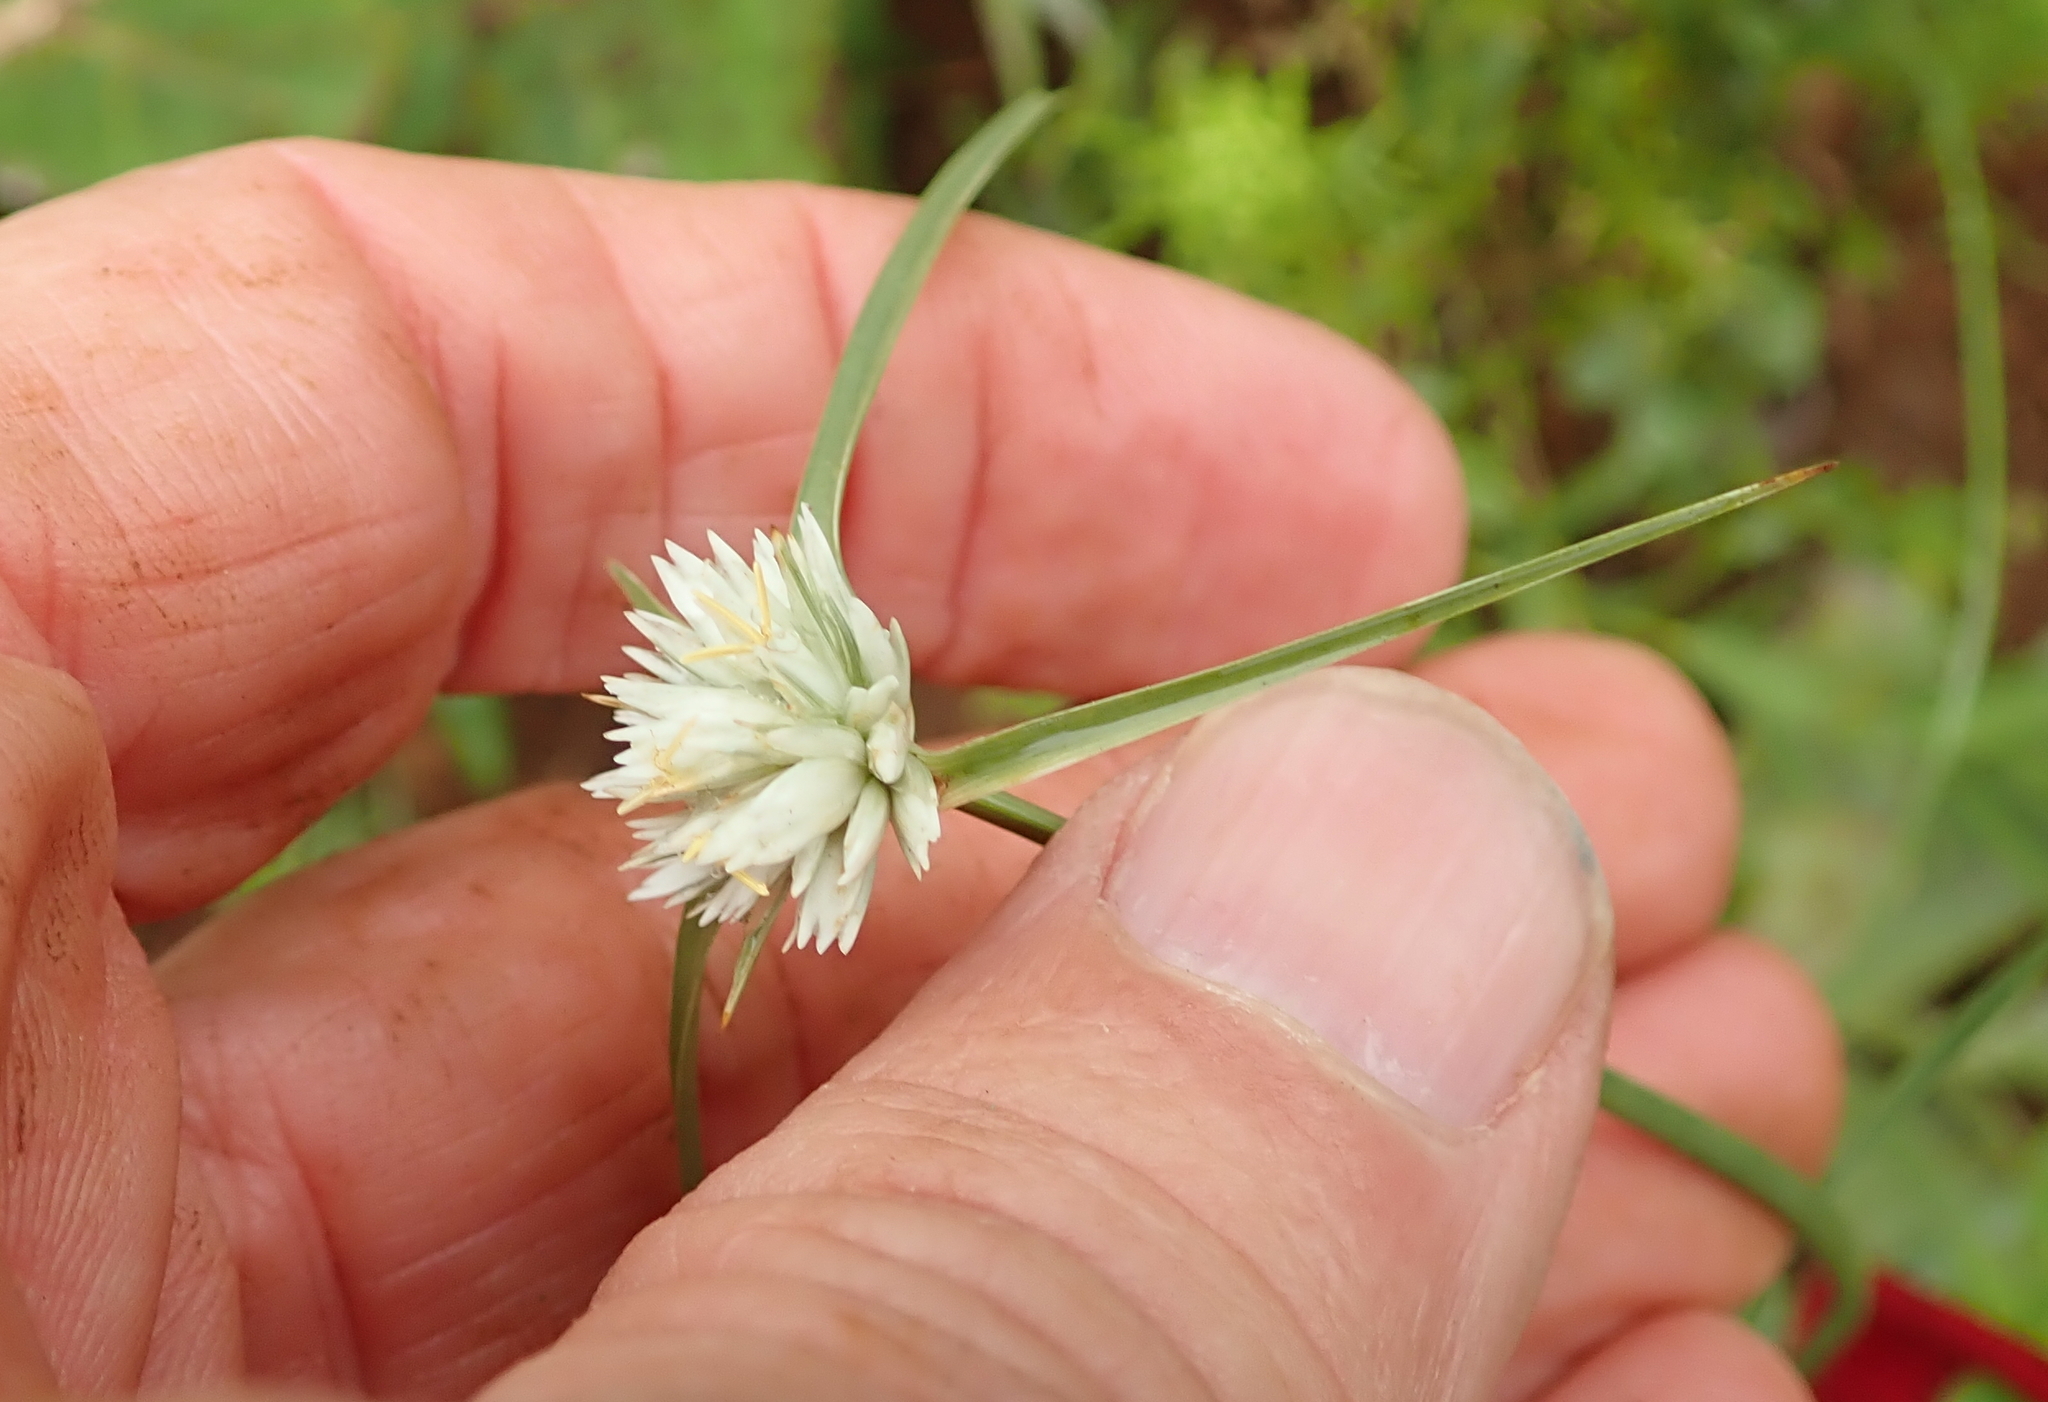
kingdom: Plantae
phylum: Tracheophyta
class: Liliopsida
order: Poales
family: Cyperaceae
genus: Cyperus
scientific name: Cyperus niveus
